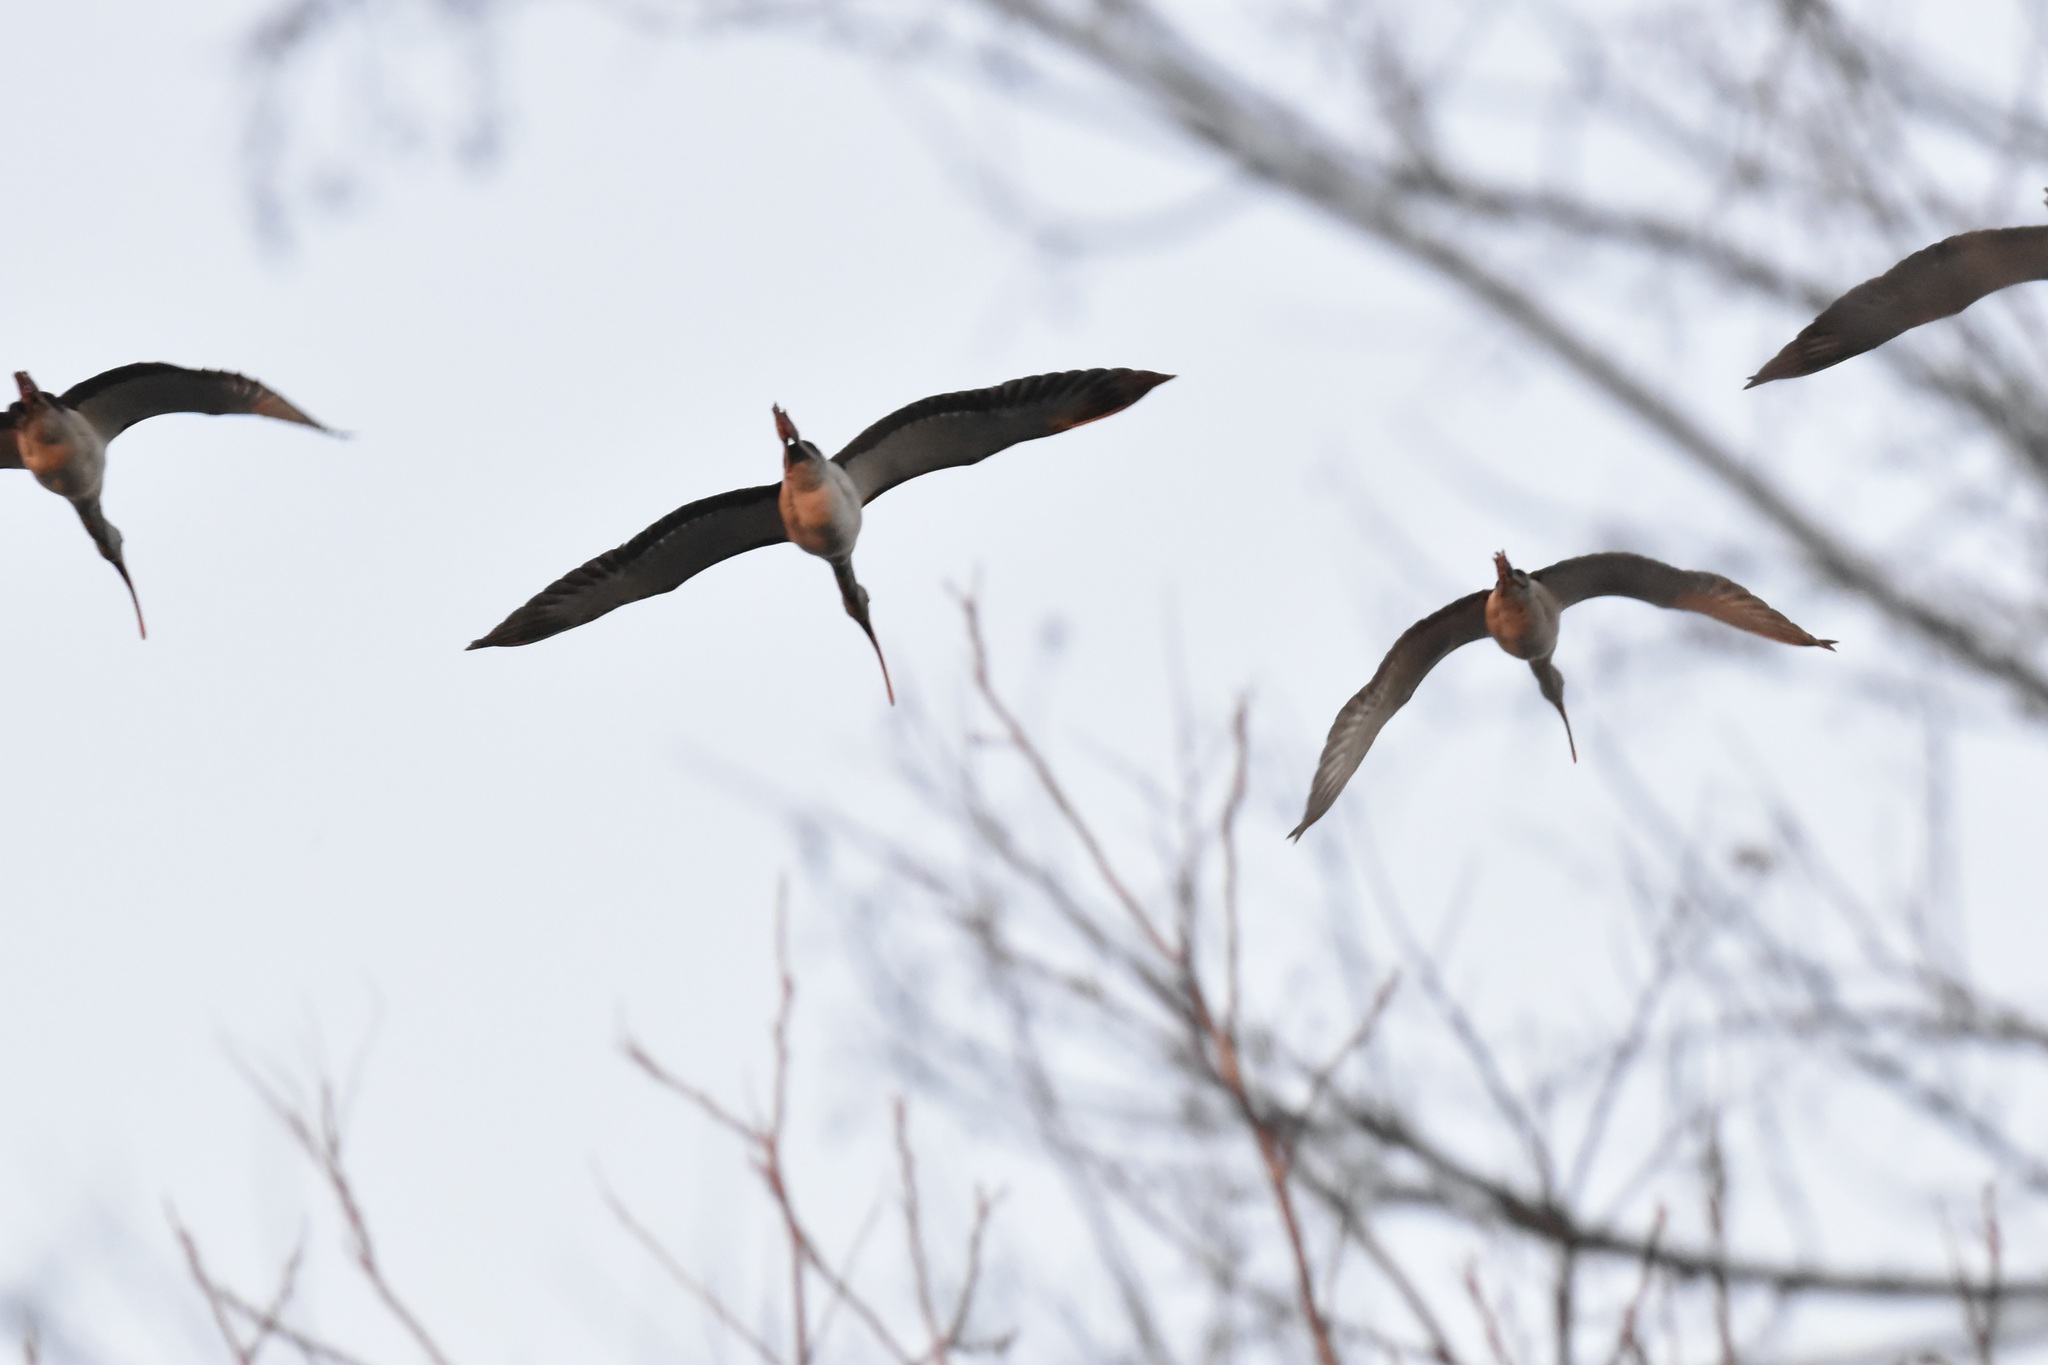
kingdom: Animalia
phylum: Chordata
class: Aves
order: Pelecaniformes
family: Threskiornithidae
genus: Eudocimus
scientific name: Eudocimus albus
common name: White ibis
